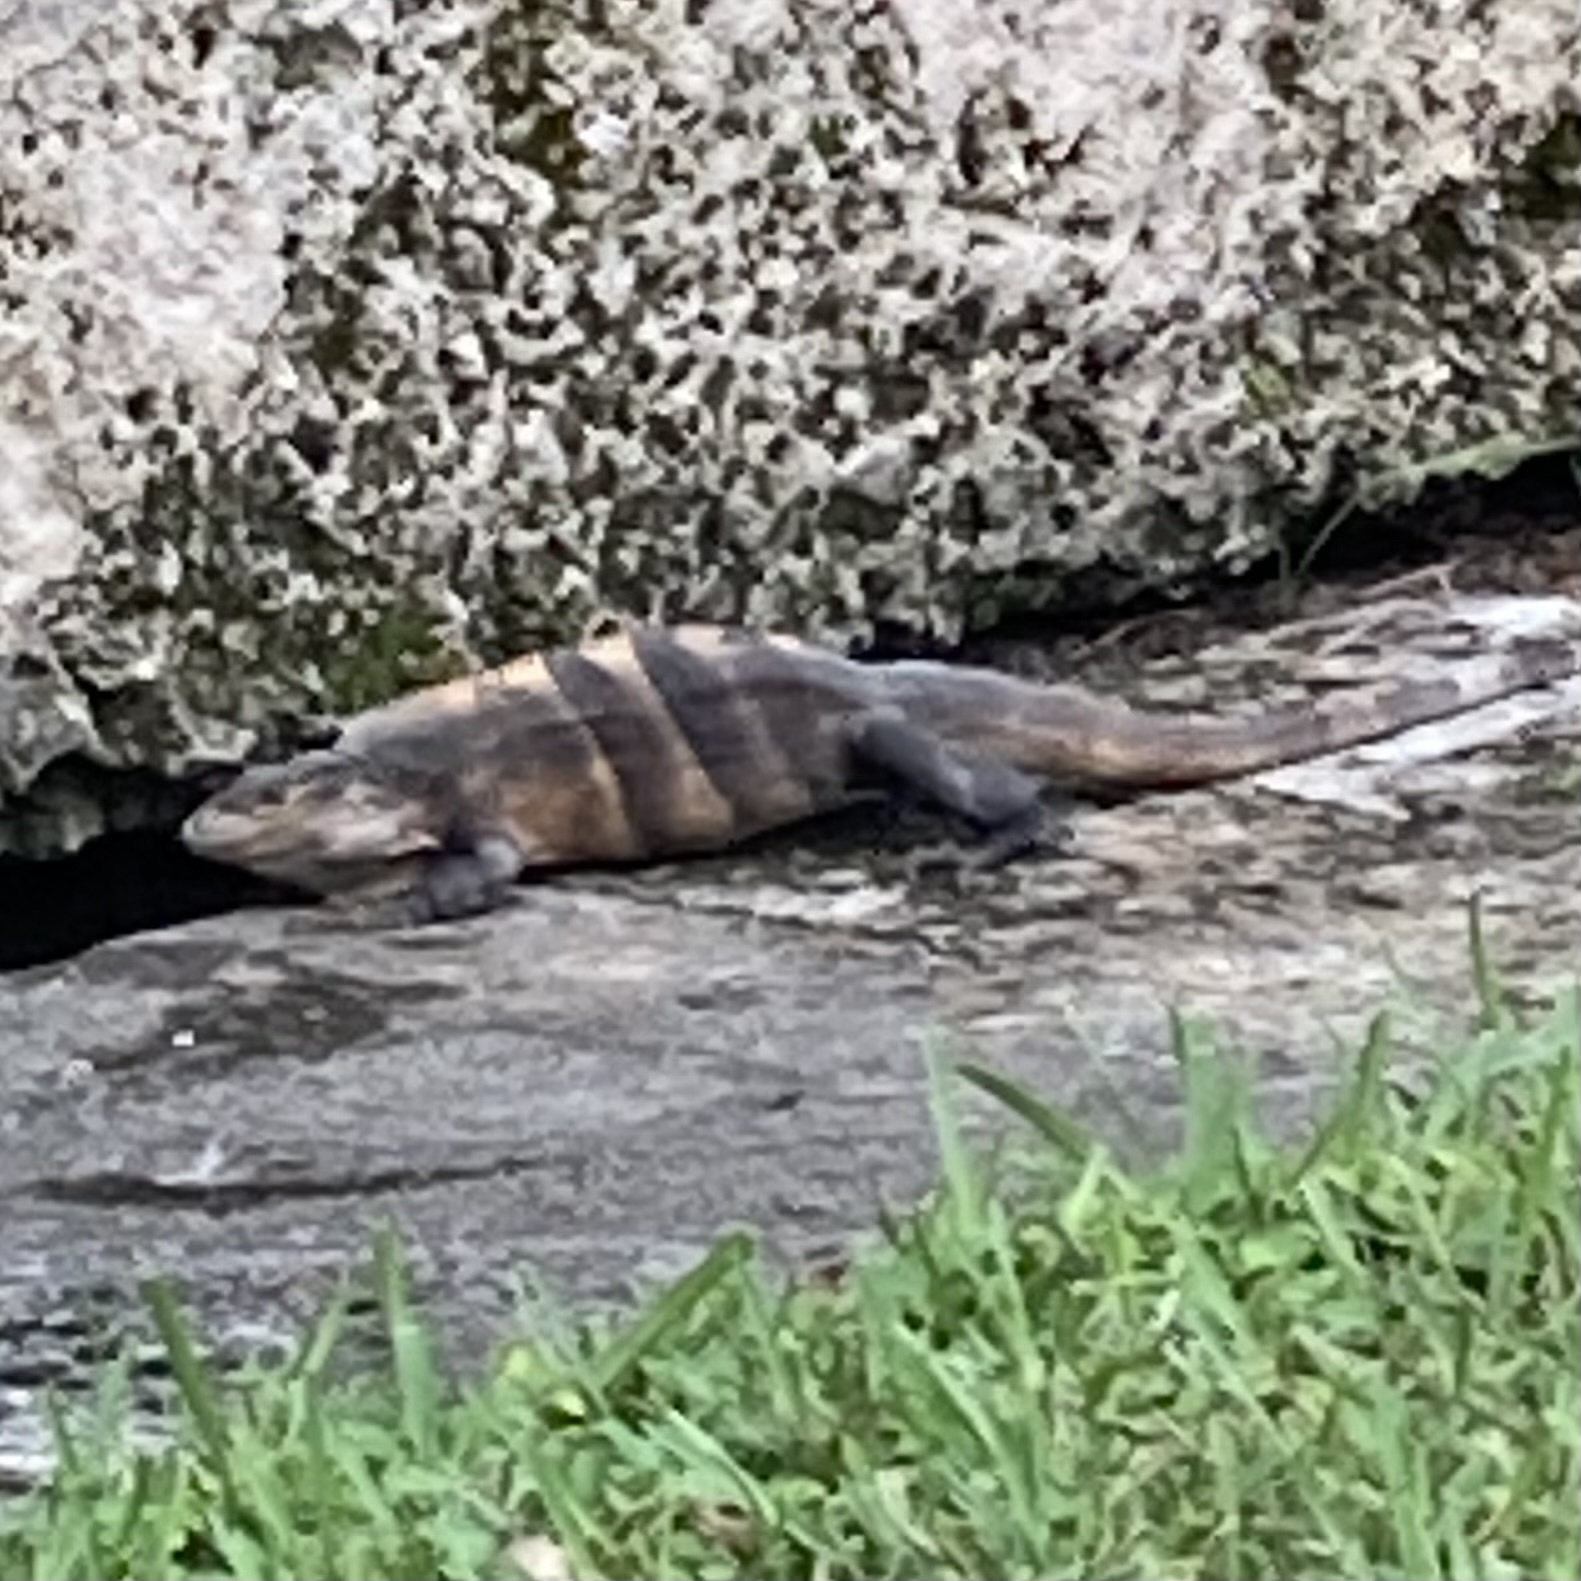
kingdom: Animalia
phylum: Chordata
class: Squamata
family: Iguanidae
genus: Ctenosaura
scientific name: Ctenosaura similis
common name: Black spiny-tailed iguana
